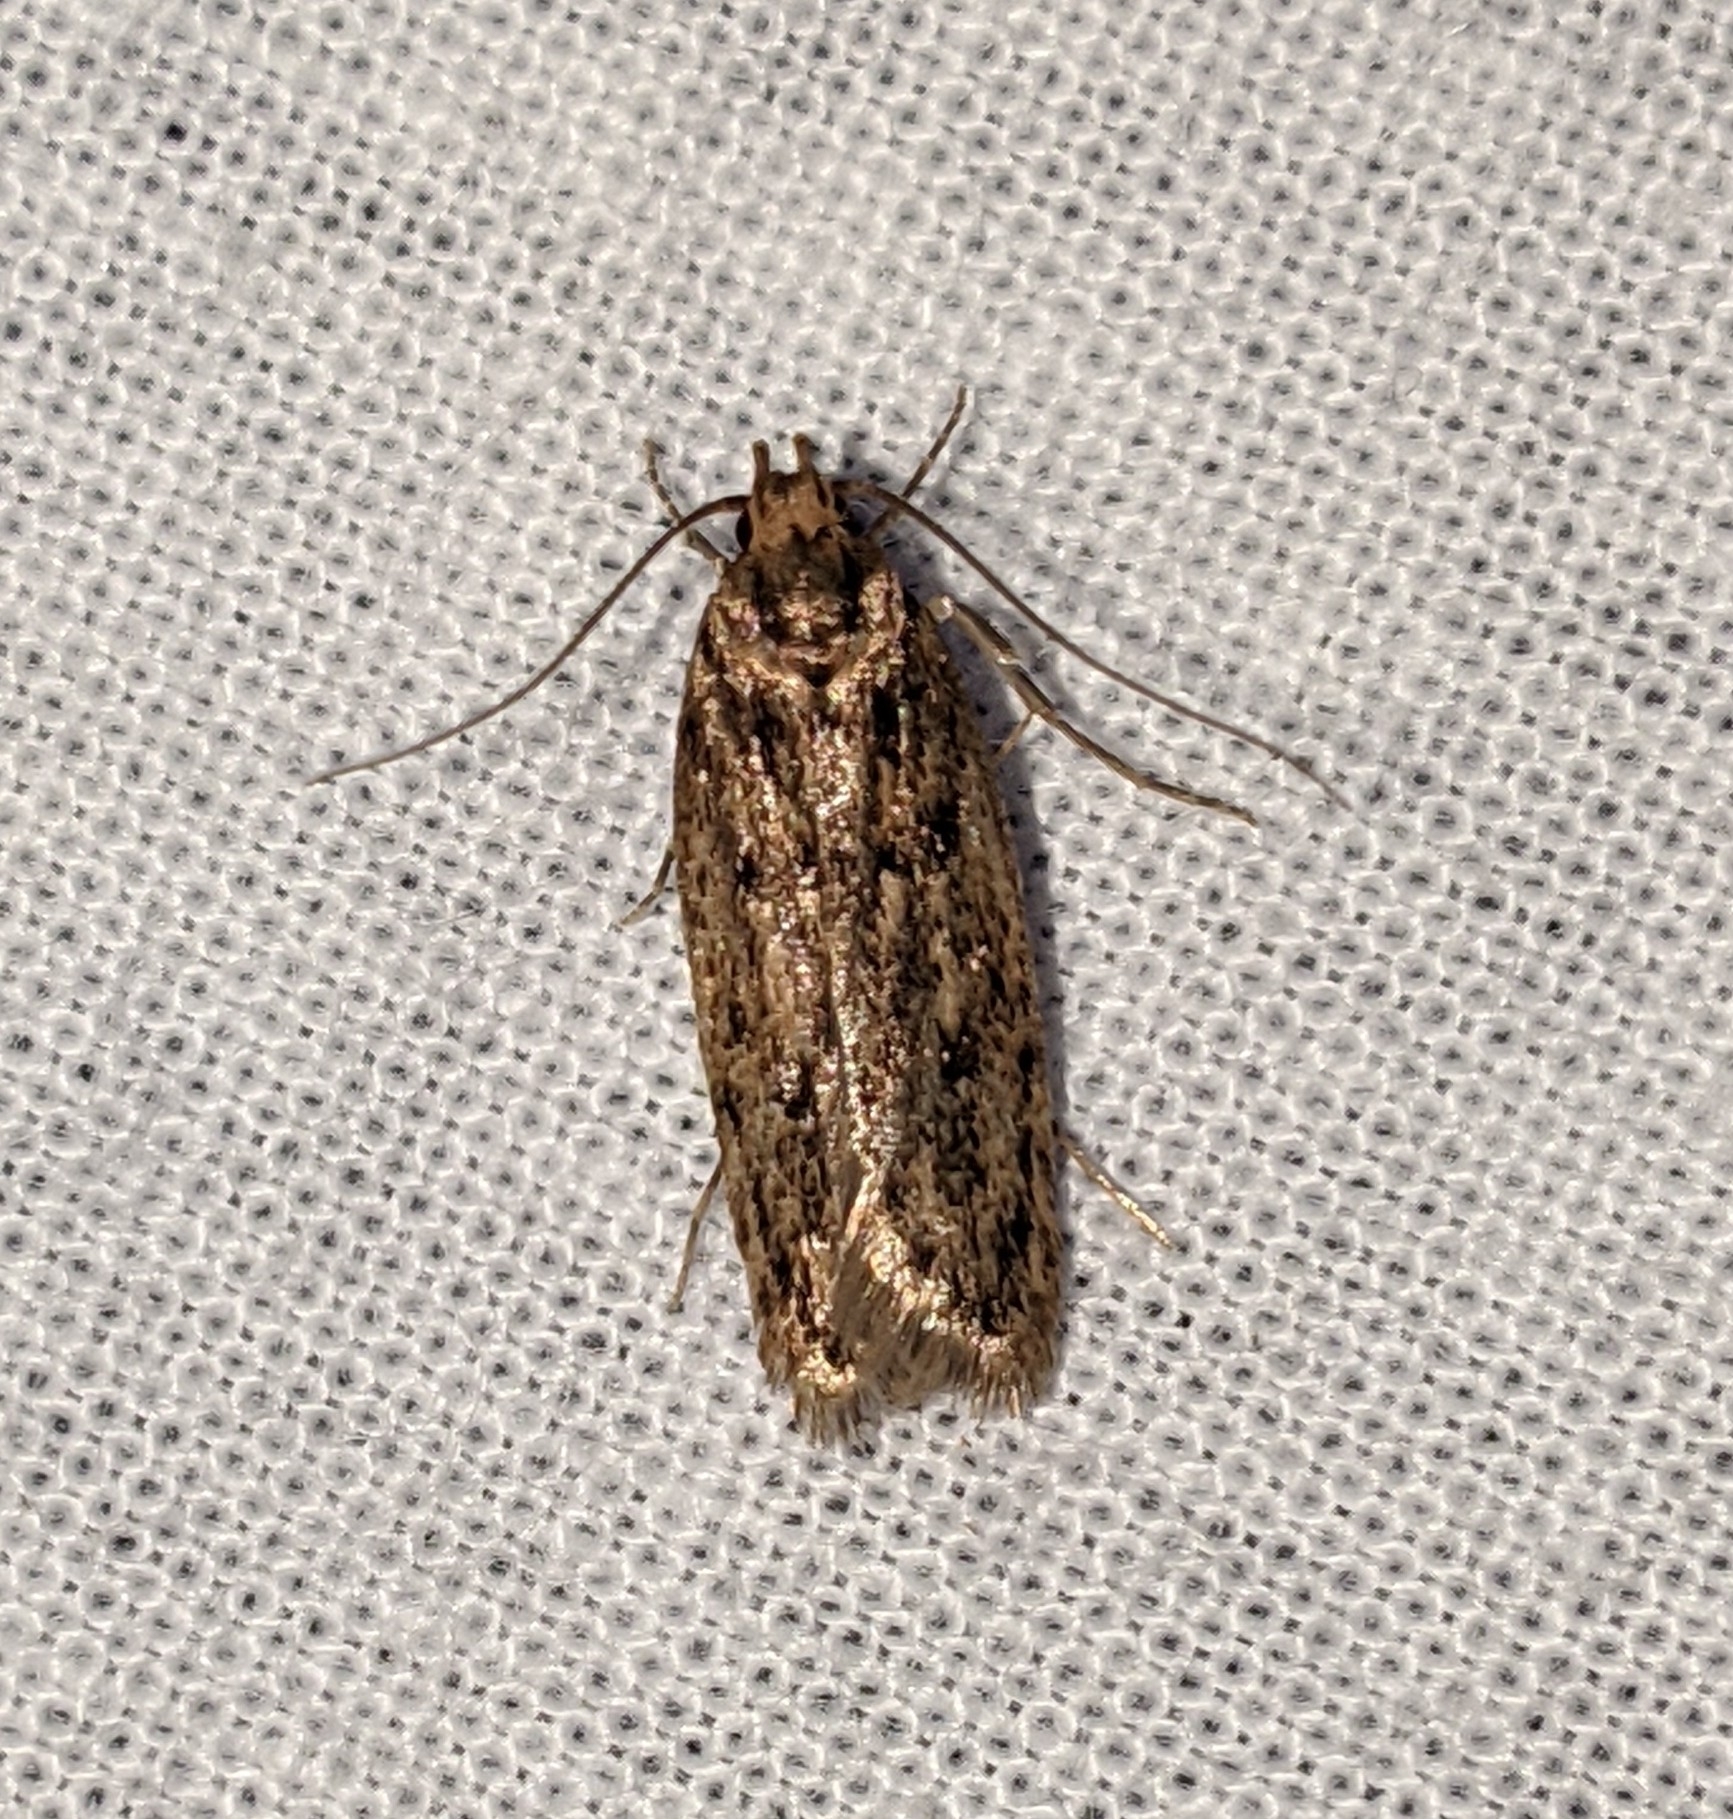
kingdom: Animalia
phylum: Arthropoda
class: Insecta
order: Lepidoptera
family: Oecophoridae
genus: Hofmannophila
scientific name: Hofmannophila pseudospretella
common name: Brown house moth
